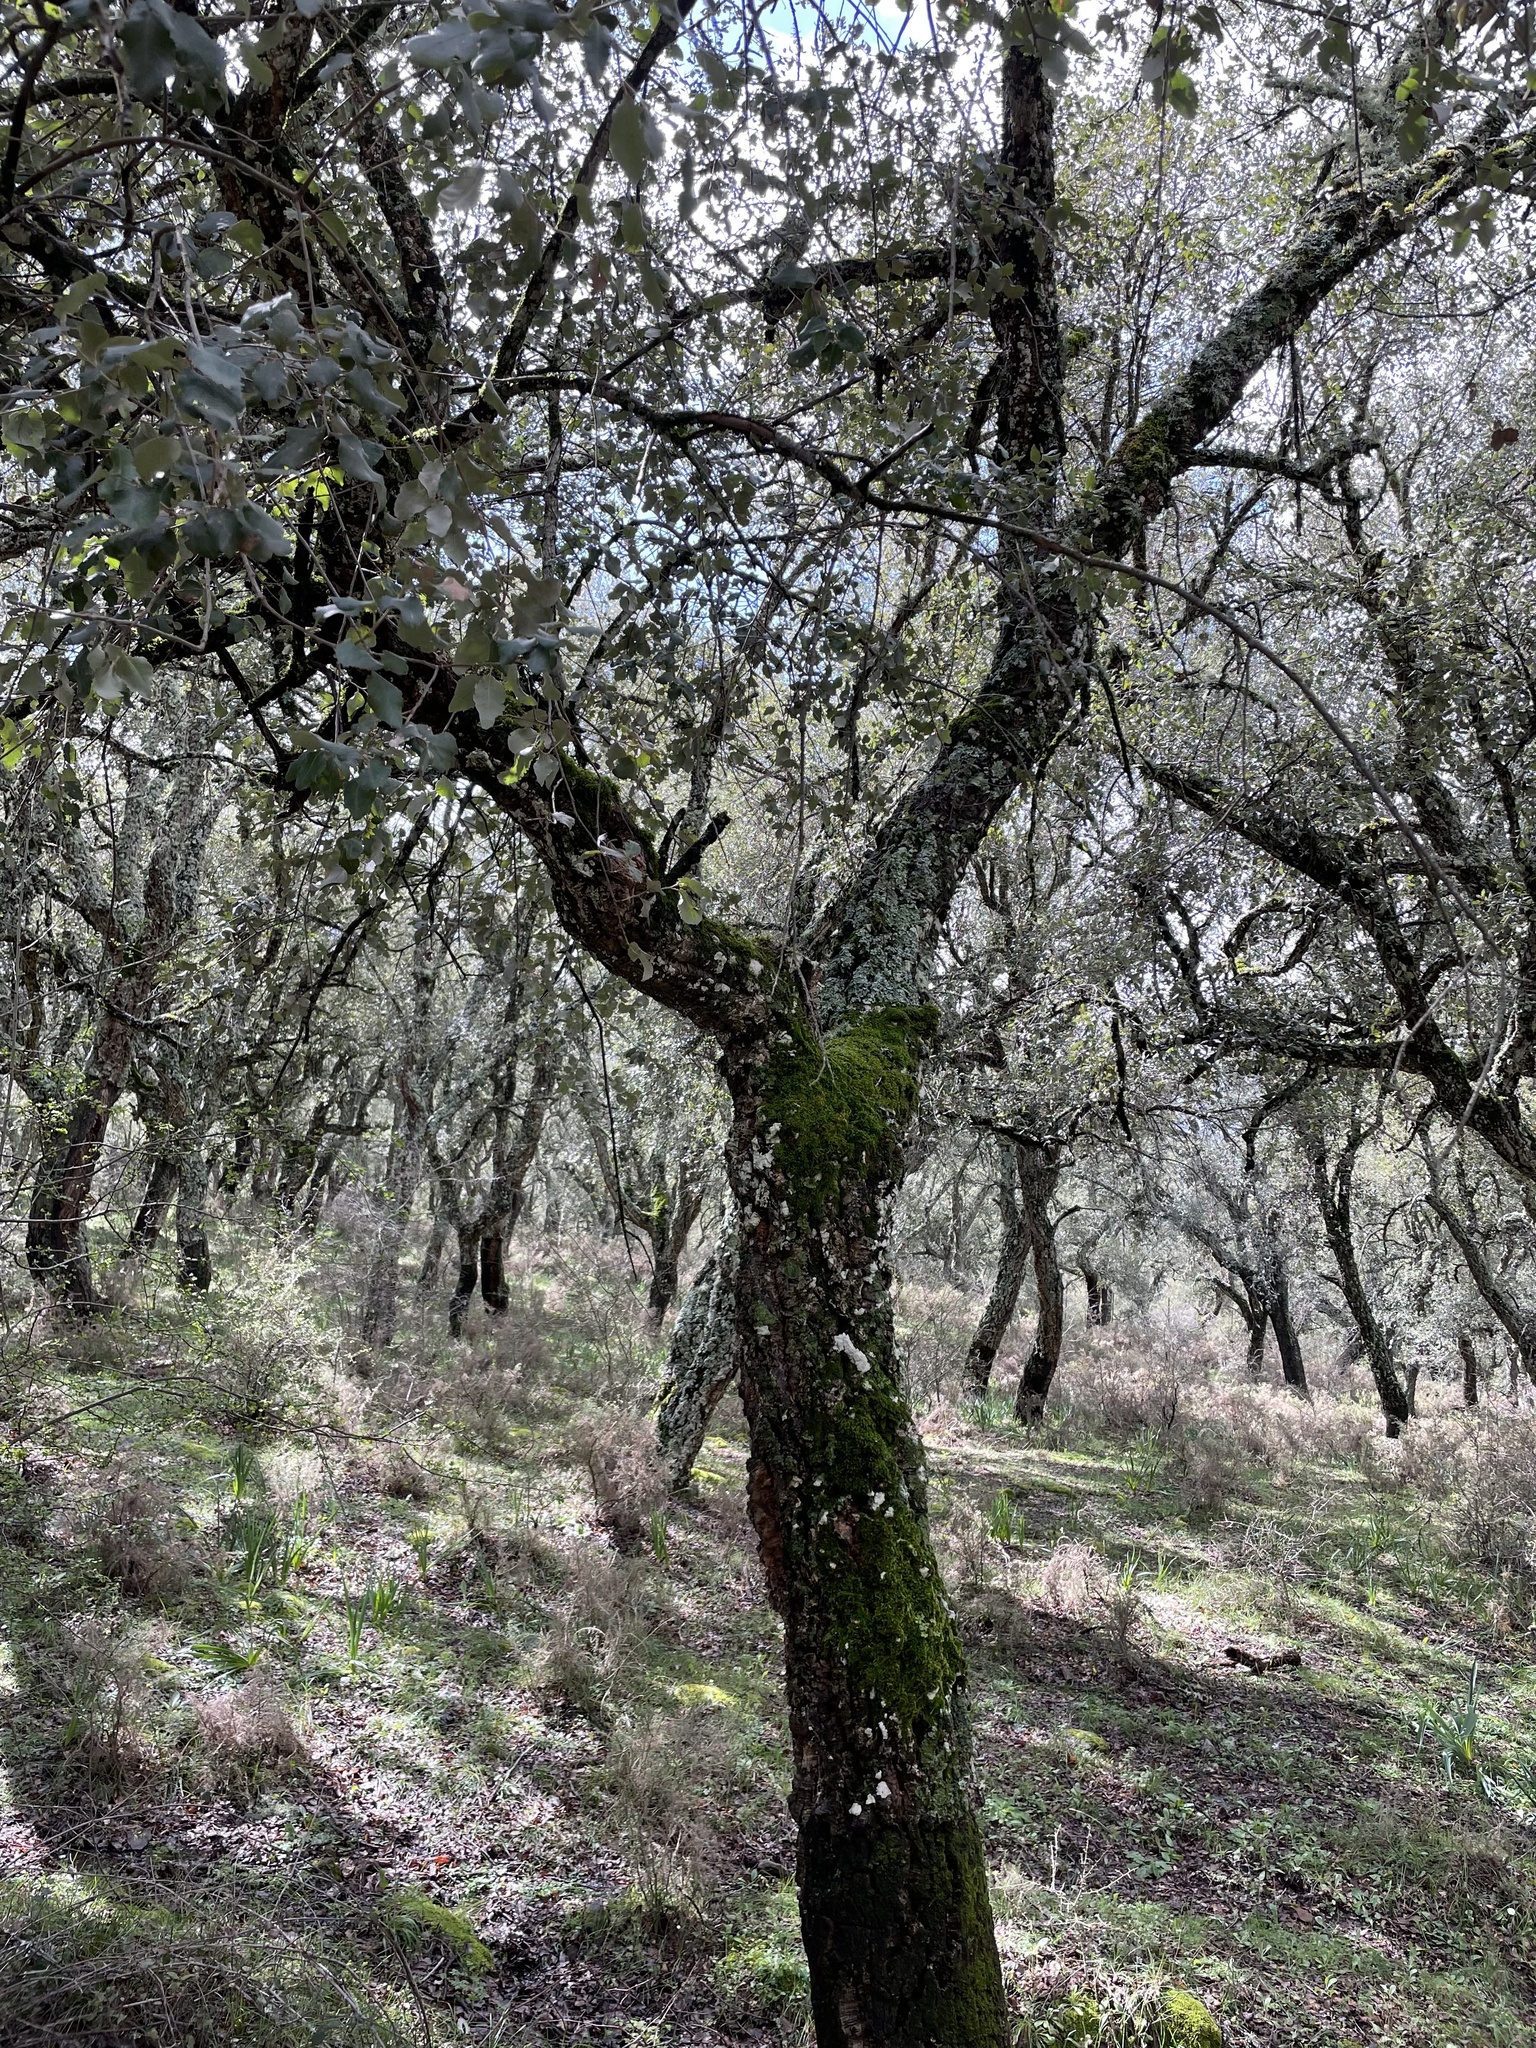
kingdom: Plantae
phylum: Tracheophyta
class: Magnoliopsida
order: Fagales
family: Fagaceae
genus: Quercus
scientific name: Quercus suber
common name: Cork oak
